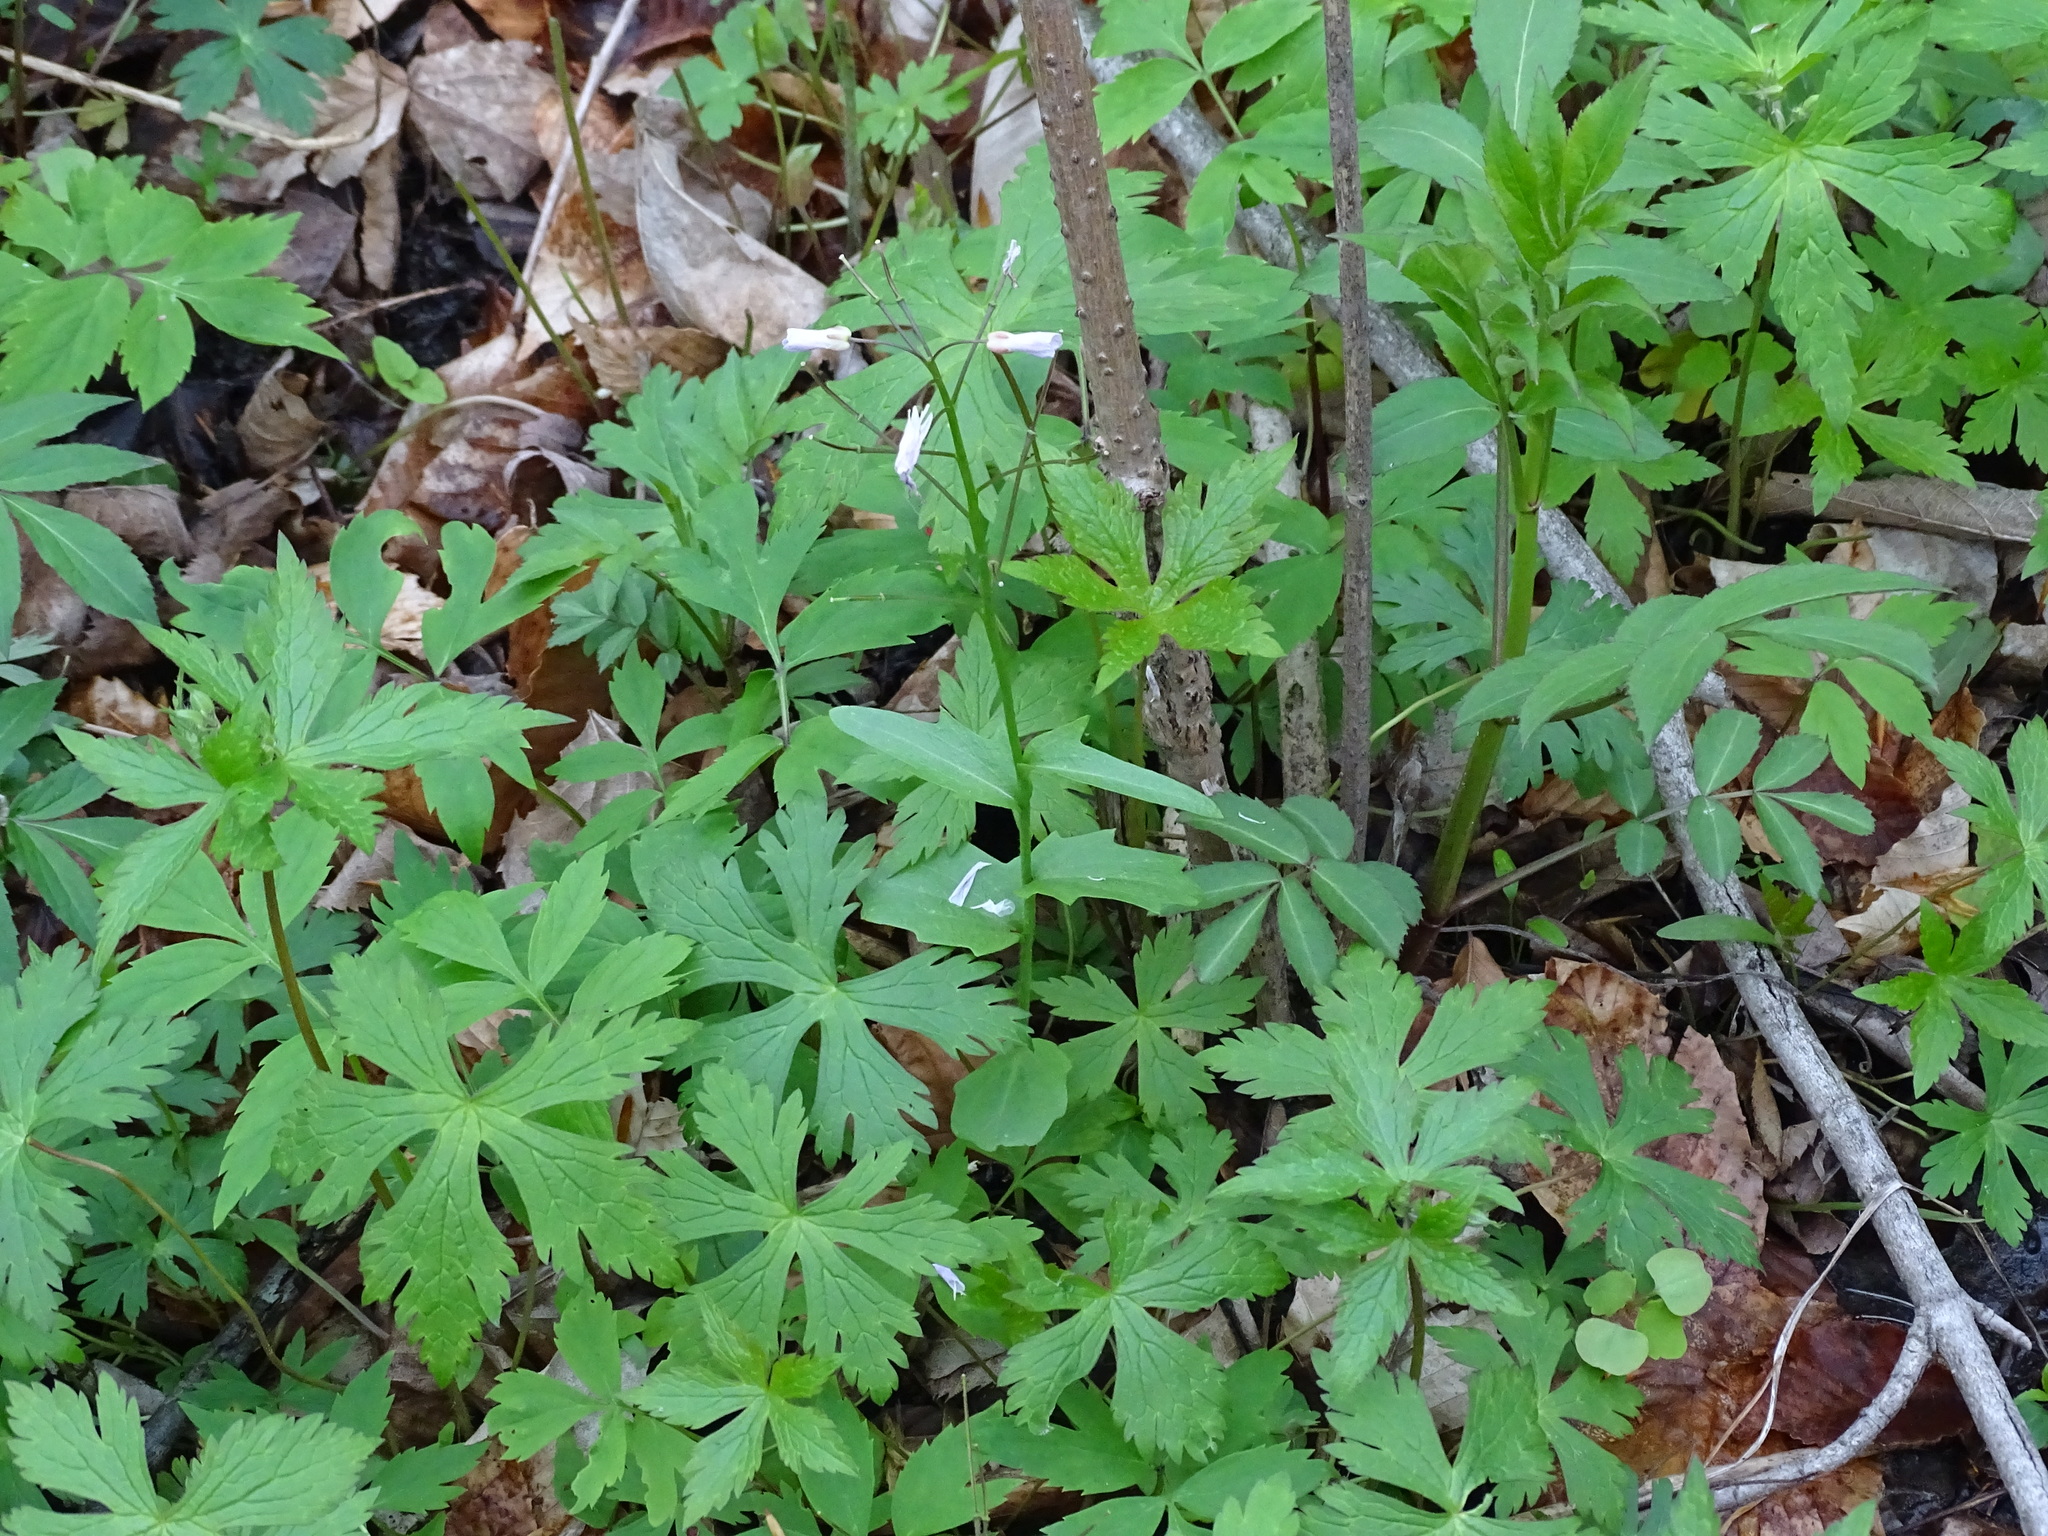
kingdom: Plantae
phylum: Tracheophyta
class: Magnoliopsida
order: Brassicales
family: Brassicaceae
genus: Cardamine
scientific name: Cardamine douglassii
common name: Purple cress
